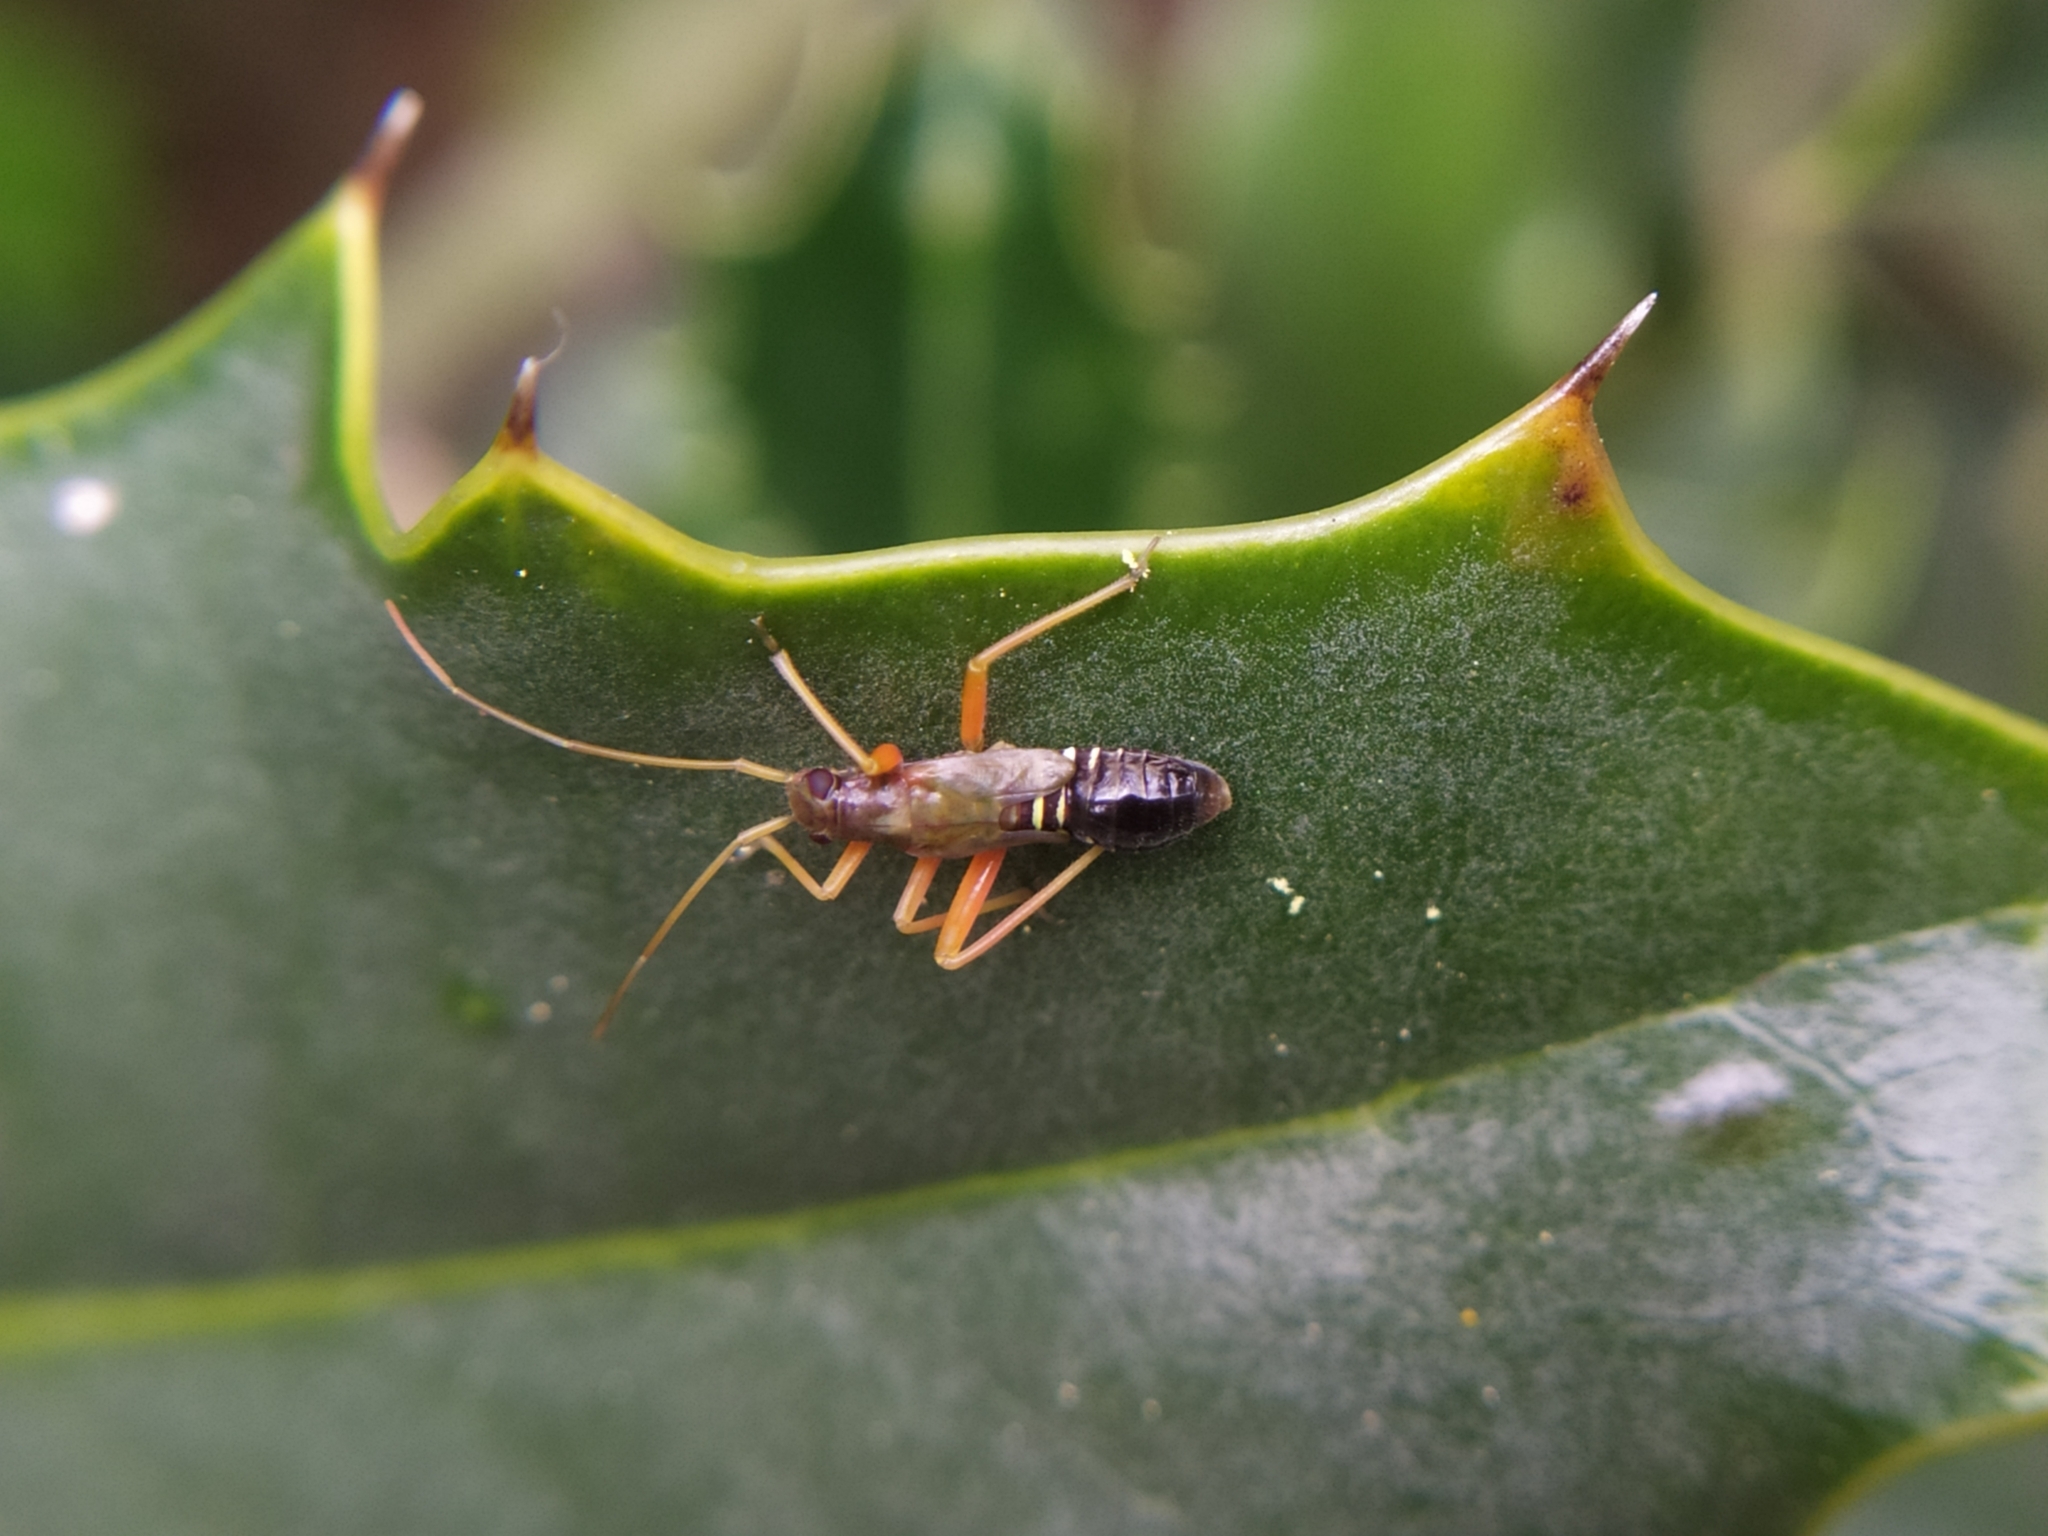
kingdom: Animalia
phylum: Arthropoda
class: Insecta
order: Hemiptera
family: Miridae
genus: Miris
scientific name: Miris striatus
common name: Fine streaked bugkin
